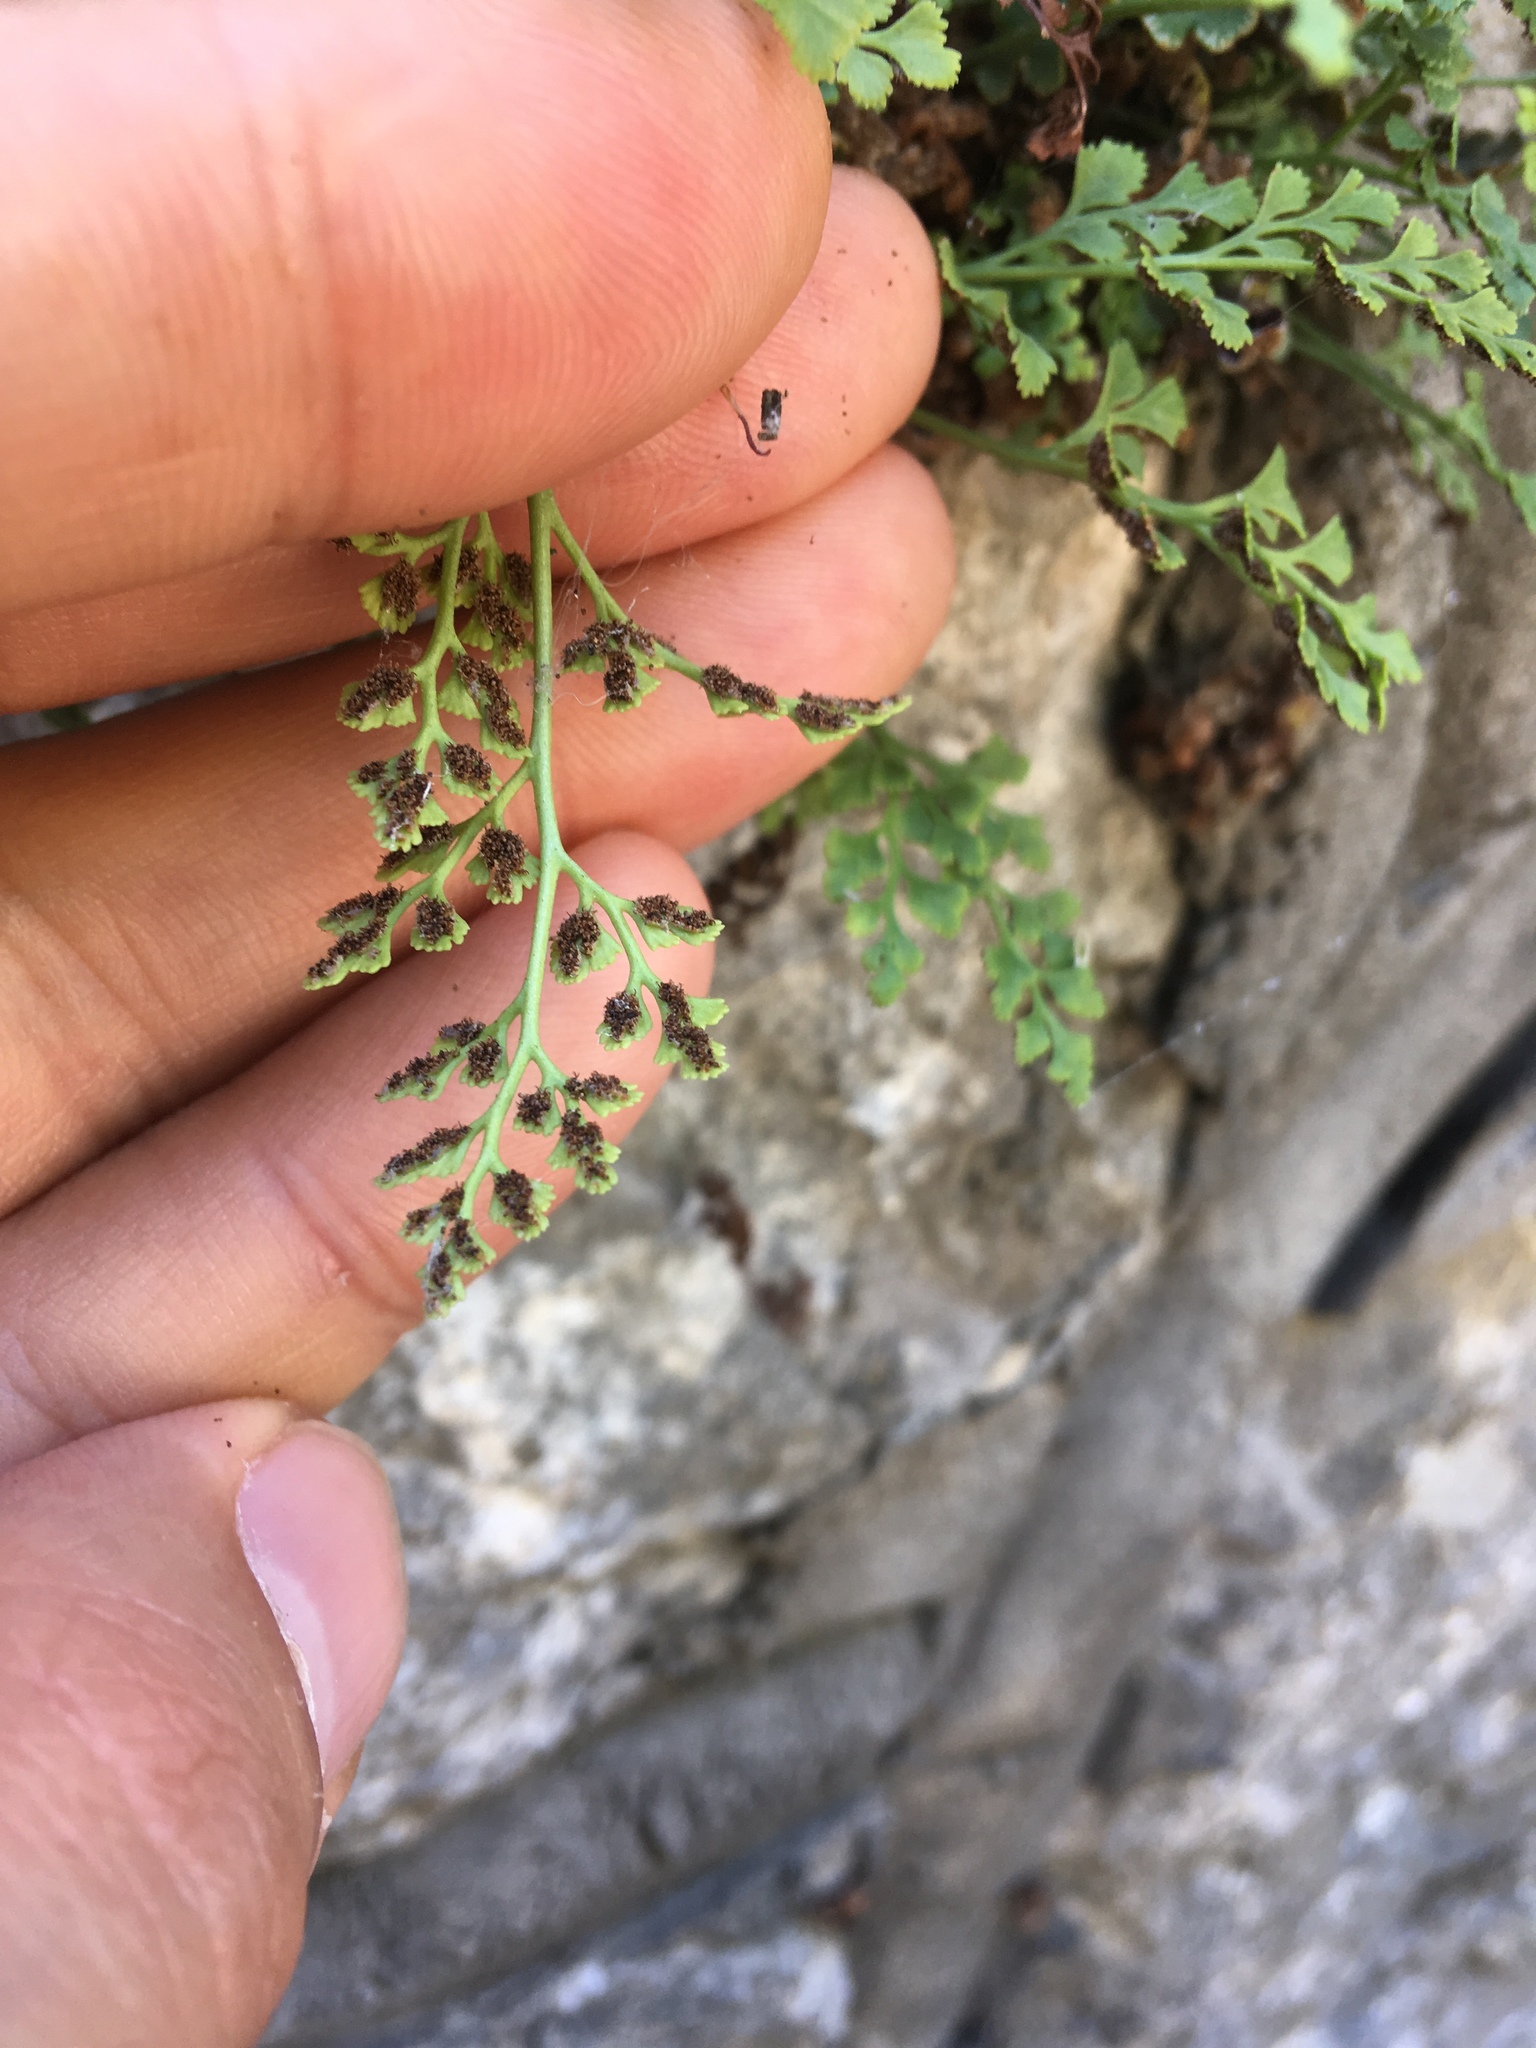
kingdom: Plantae
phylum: Tracheophyta
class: Polypodiopsida
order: Polypodiales
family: Aspleniaceae
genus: Asplenium
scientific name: Asplenium ruta-muraria
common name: Wall-rue
